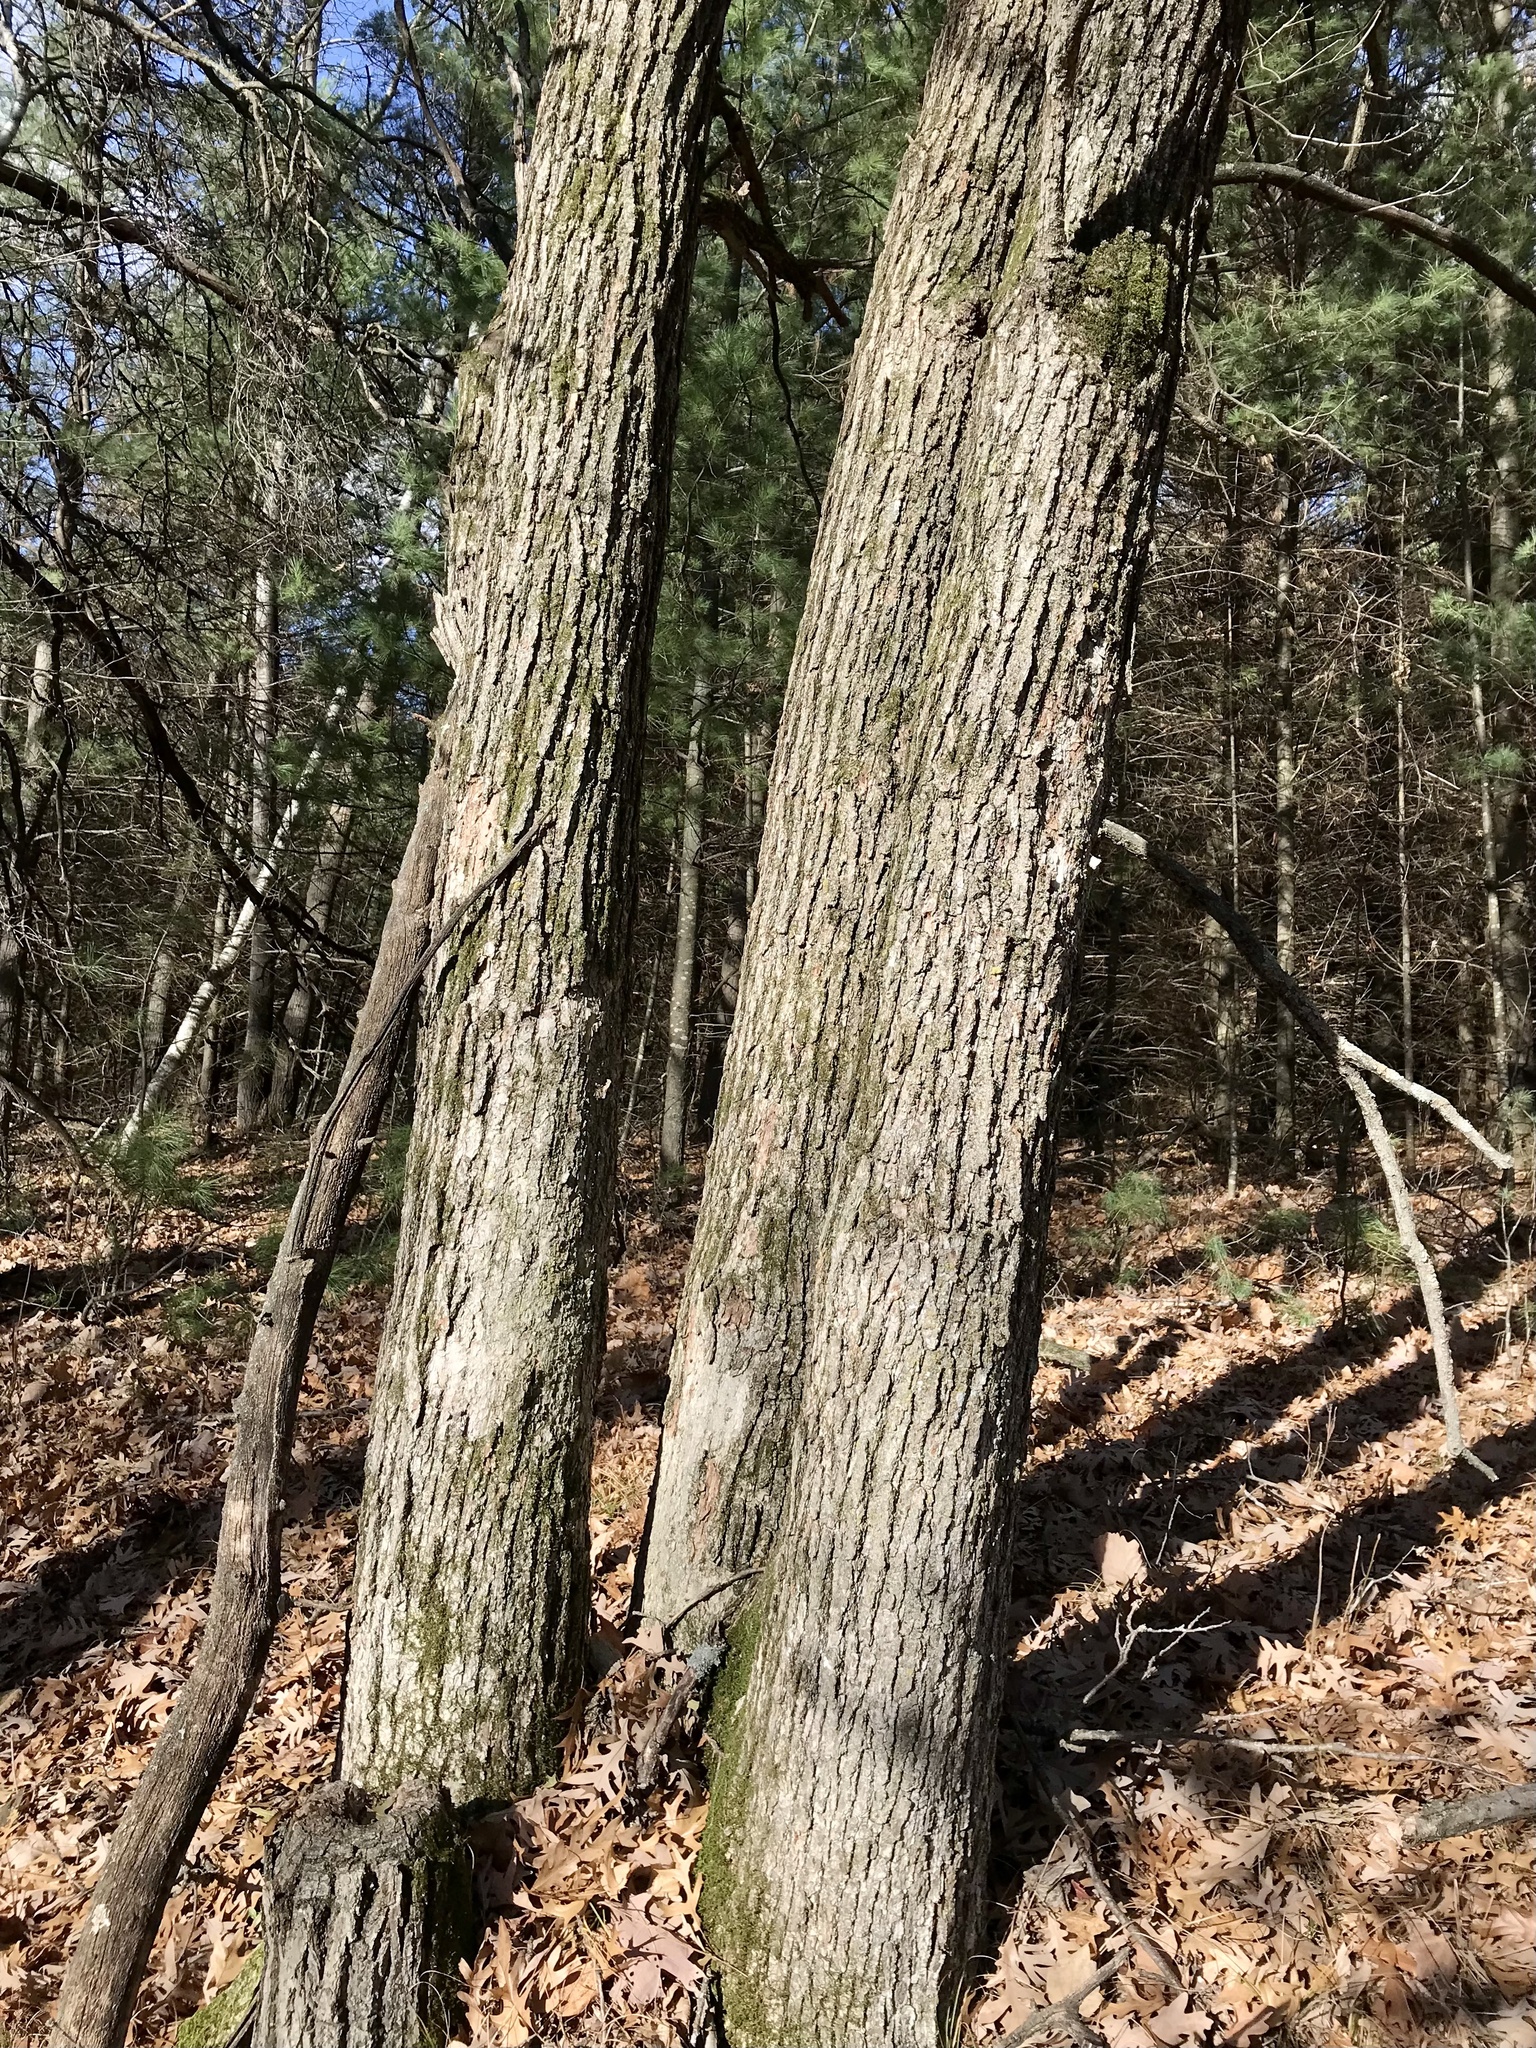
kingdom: Plantae
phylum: Tracheophyta
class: Magnoliopsida
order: Fagales
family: Fagaceae
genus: Quercus
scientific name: Quercus macrocarpa
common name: Bur oak
